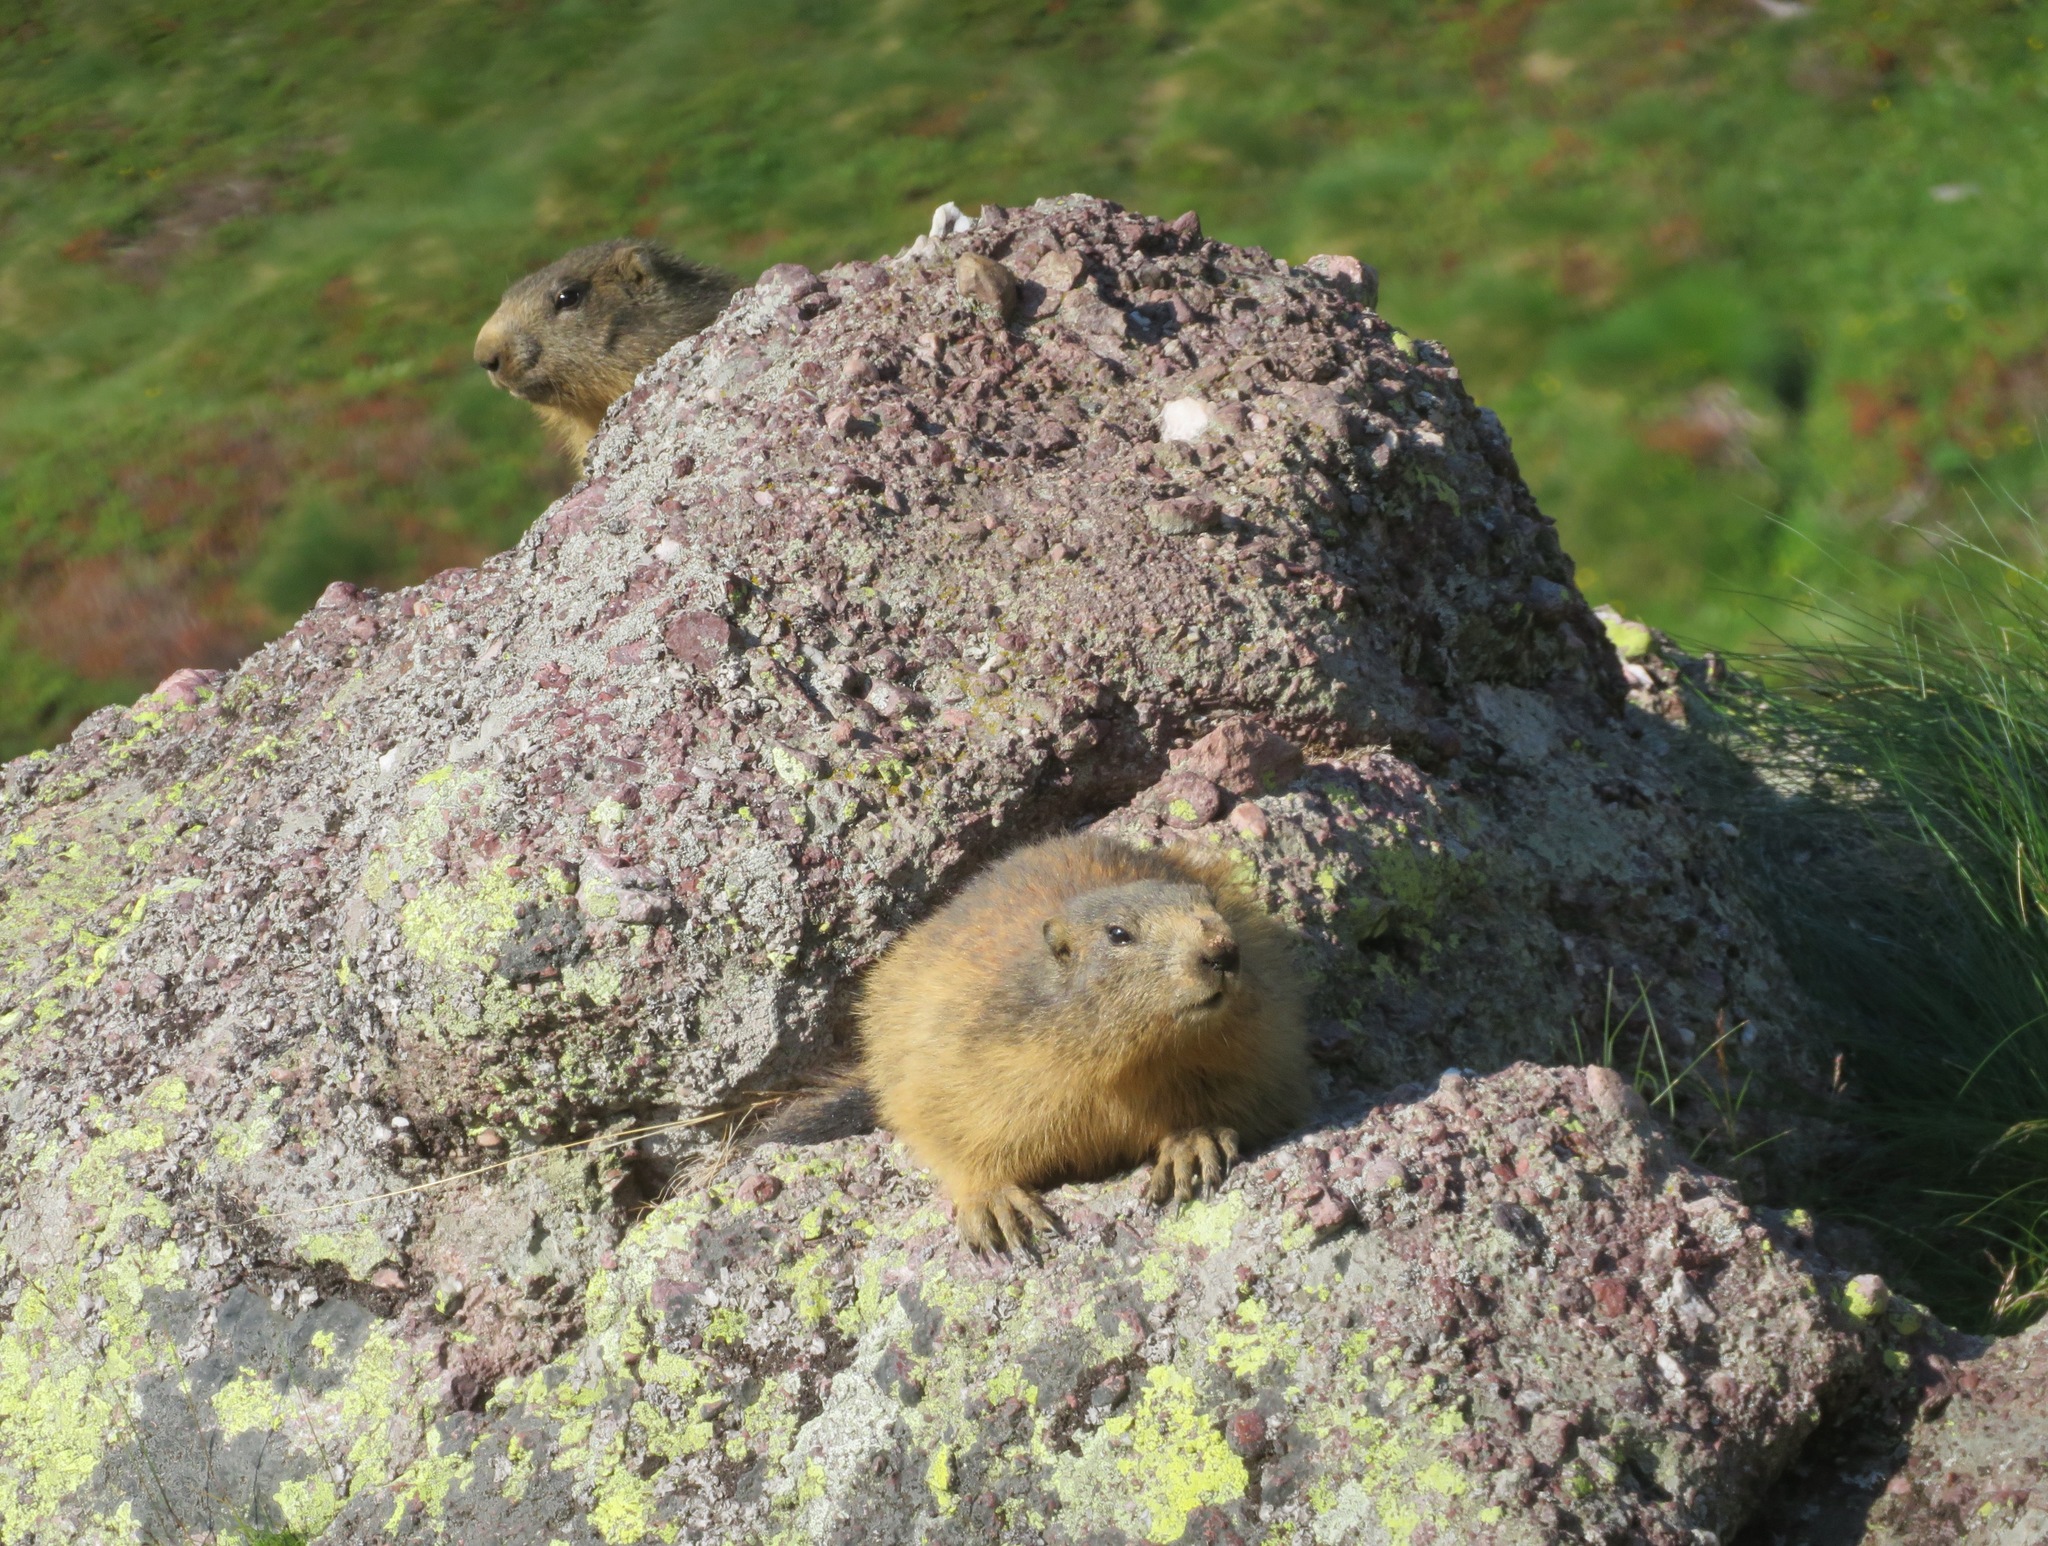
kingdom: Animalia
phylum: Chordata
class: Mammalia
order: Rodentia
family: Sciuridae
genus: Marmota
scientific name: Marmota marmota
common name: Alpine marmot
